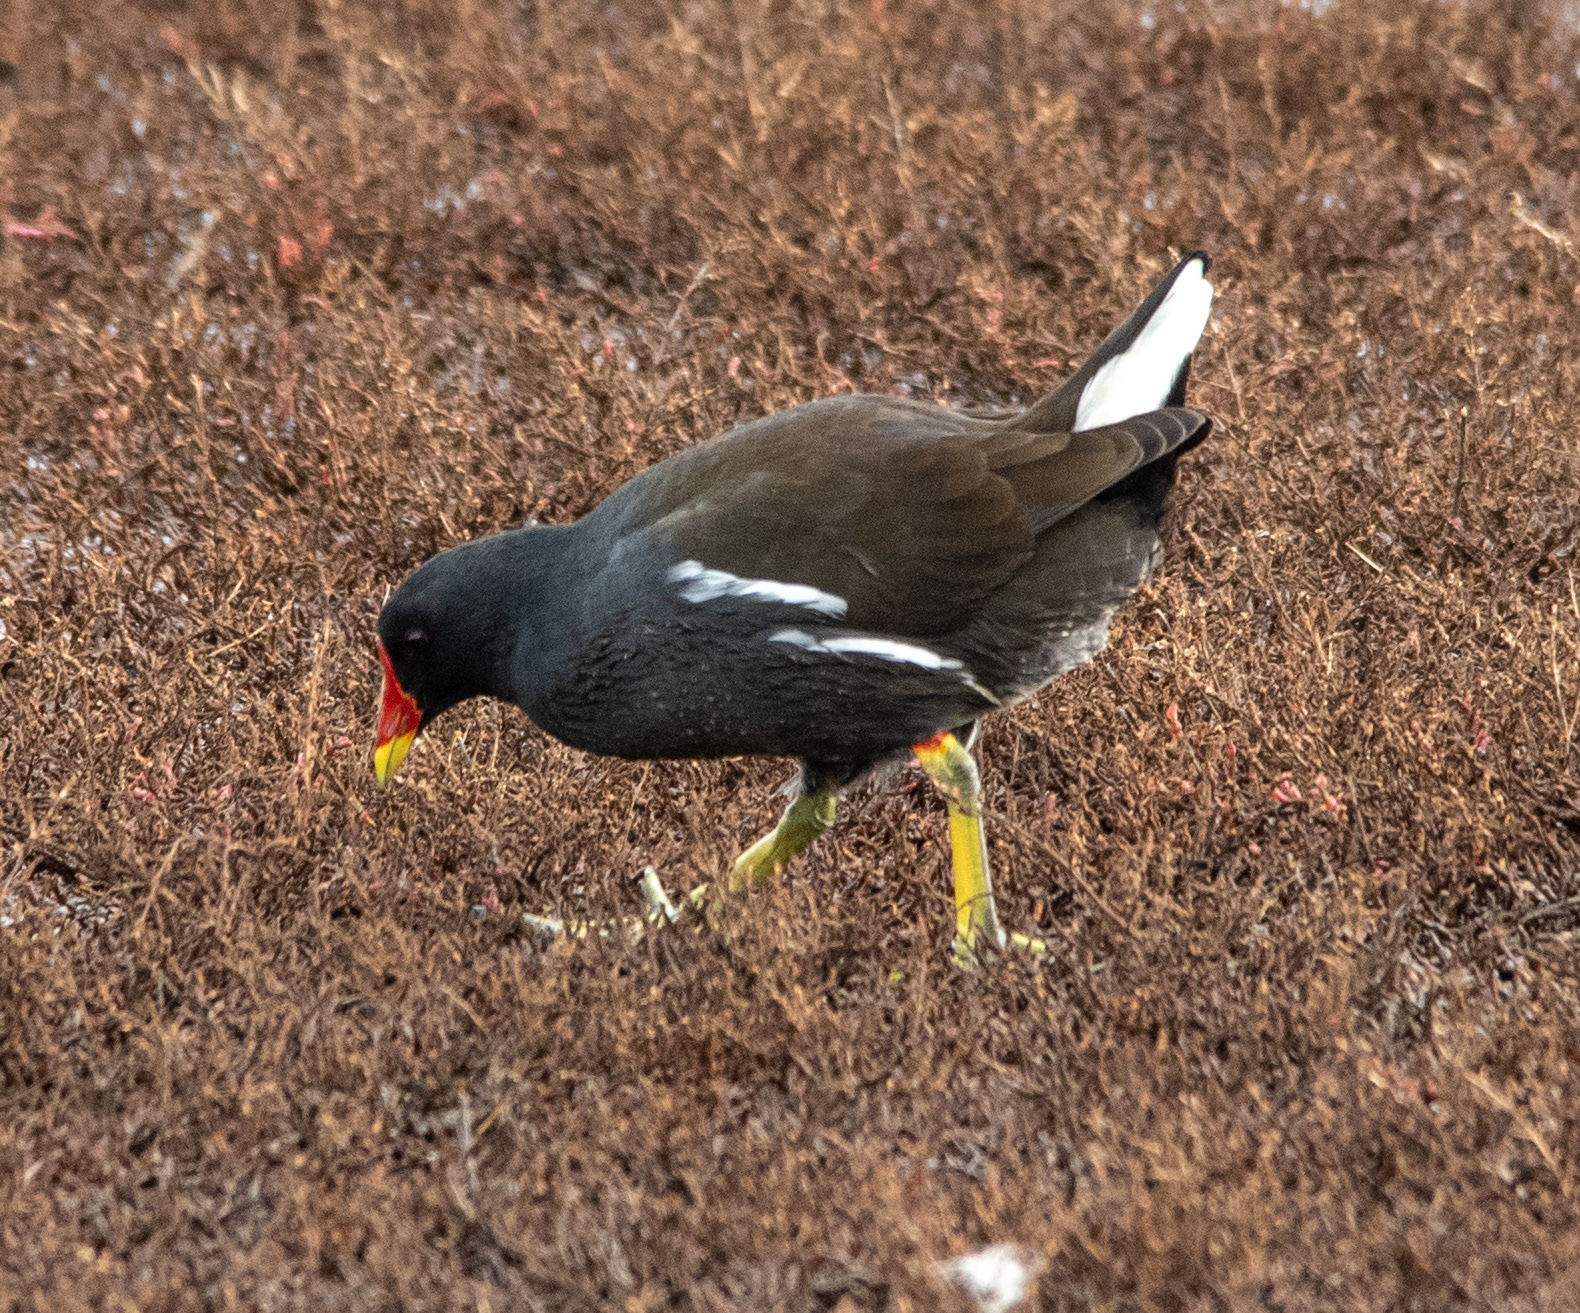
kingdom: Animalia
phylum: Chordata
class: Aves
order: Gruiformes
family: Rallidae
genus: Gallinula
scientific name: Gallinula chloropus
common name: Common moorhen
